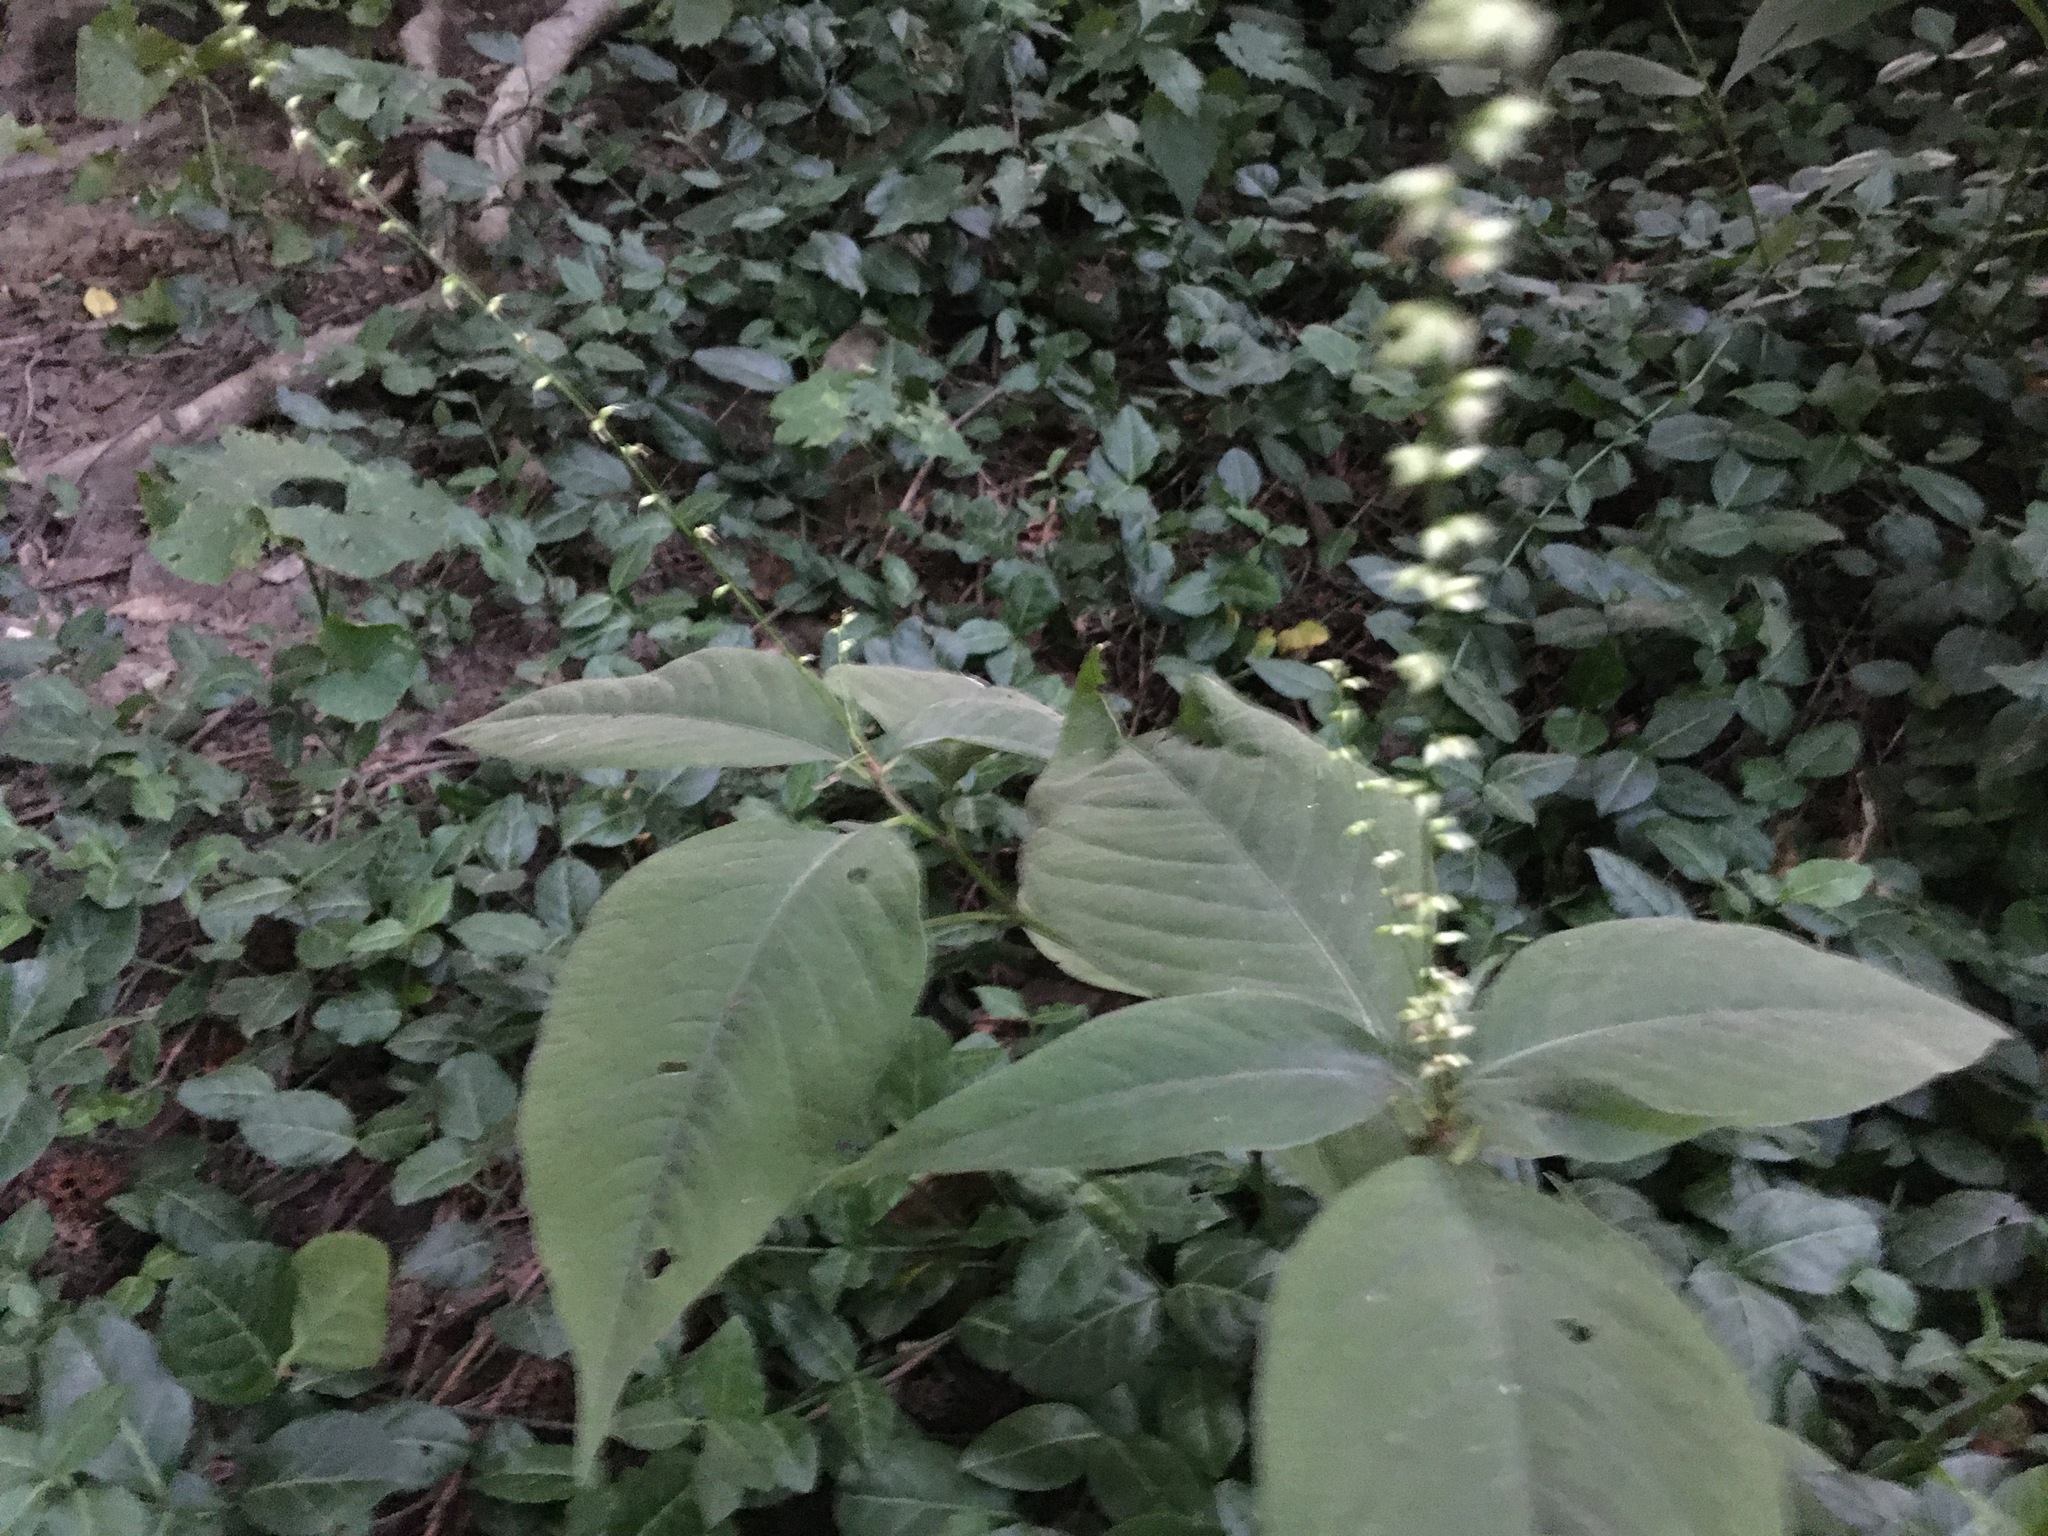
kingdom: Plantae
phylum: Tracheophyta
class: Magnoliopsida
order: Caryophyllales
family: Polygonaceae
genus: Persicaria
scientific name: Persicaria virginiana
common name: Jumpseed
